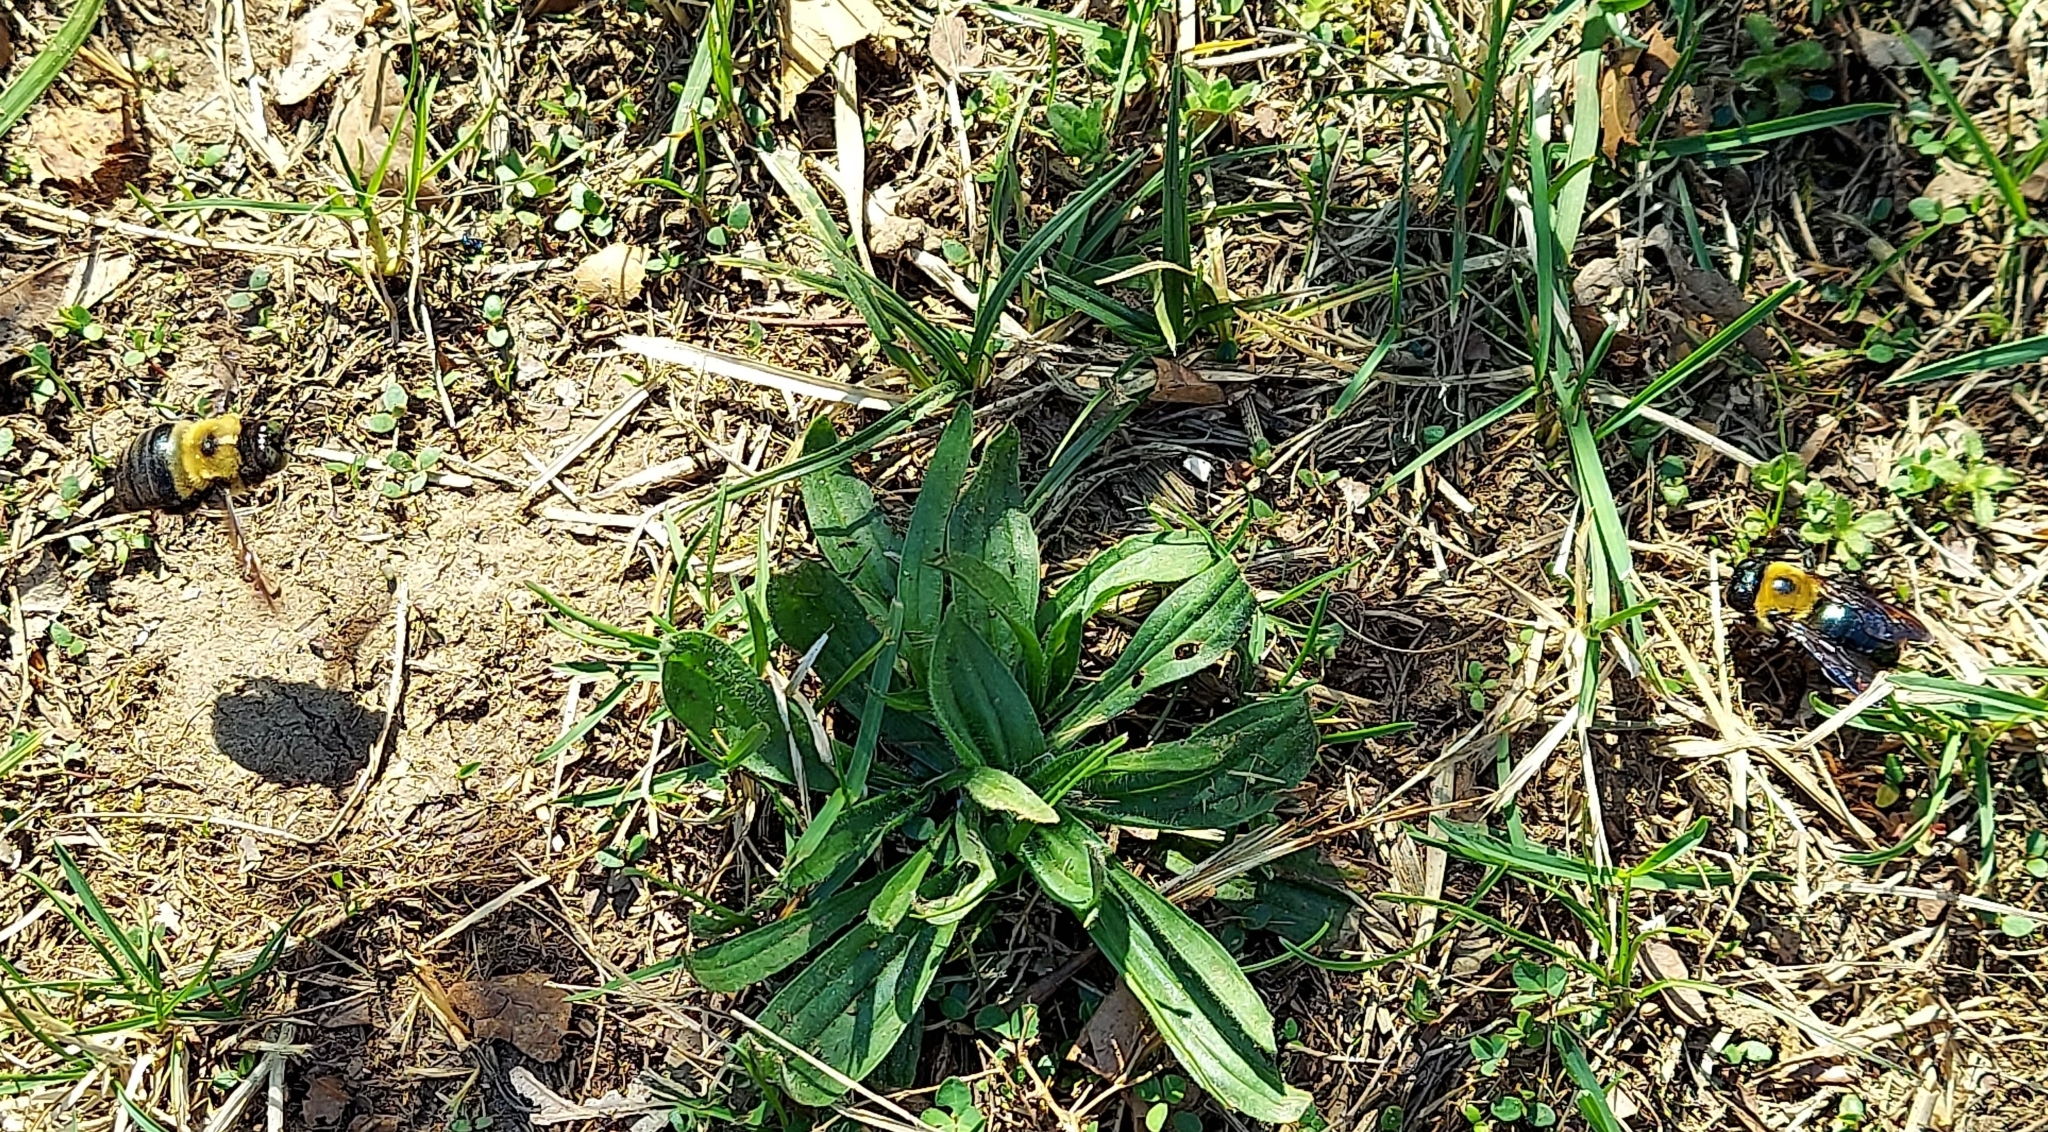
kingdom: Animalia
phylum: Arthropoda
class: Insecta
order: Hymenoptera
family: Apidae
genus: Xylocopa
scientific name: Xylocopa virginica
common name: Carpenter bee
